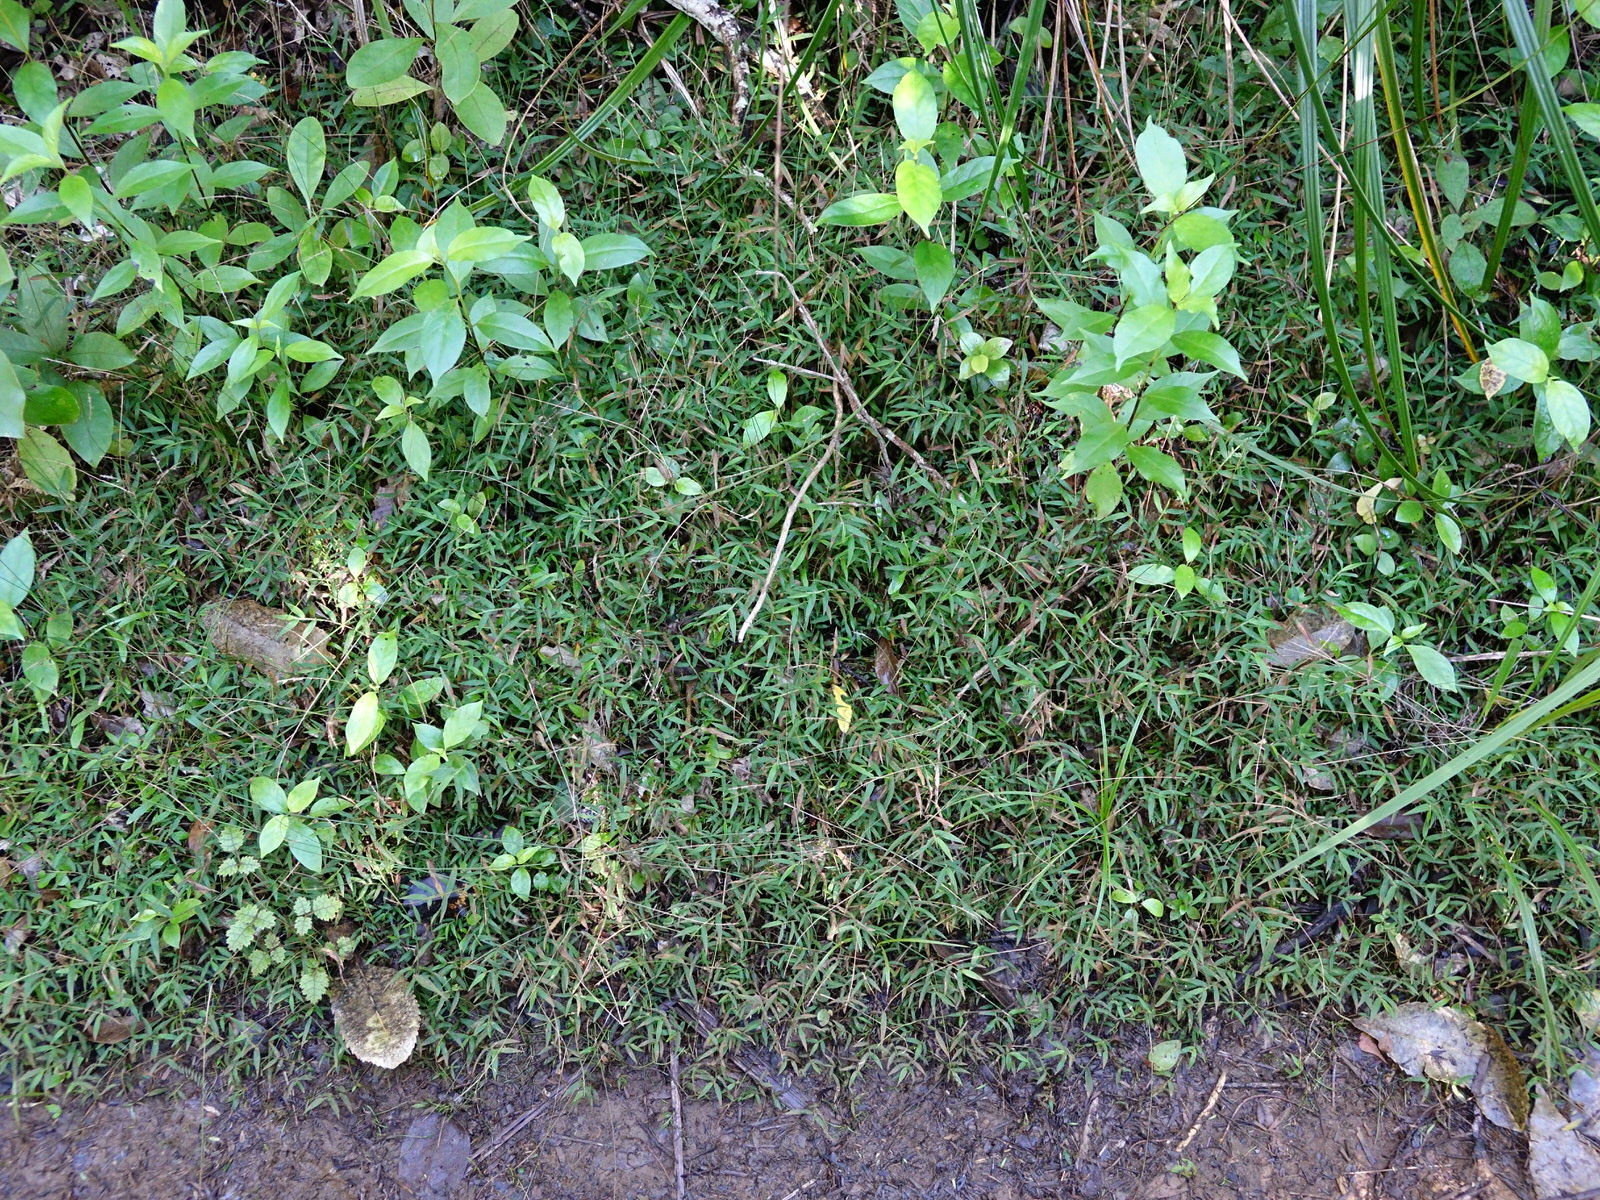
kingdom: Plantae
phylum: Tracheophyta
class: Liliopsida
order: Poales
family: Poaceae
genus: Oplismenus
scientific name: Oplismenus hirtellus
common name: Basketgrass
